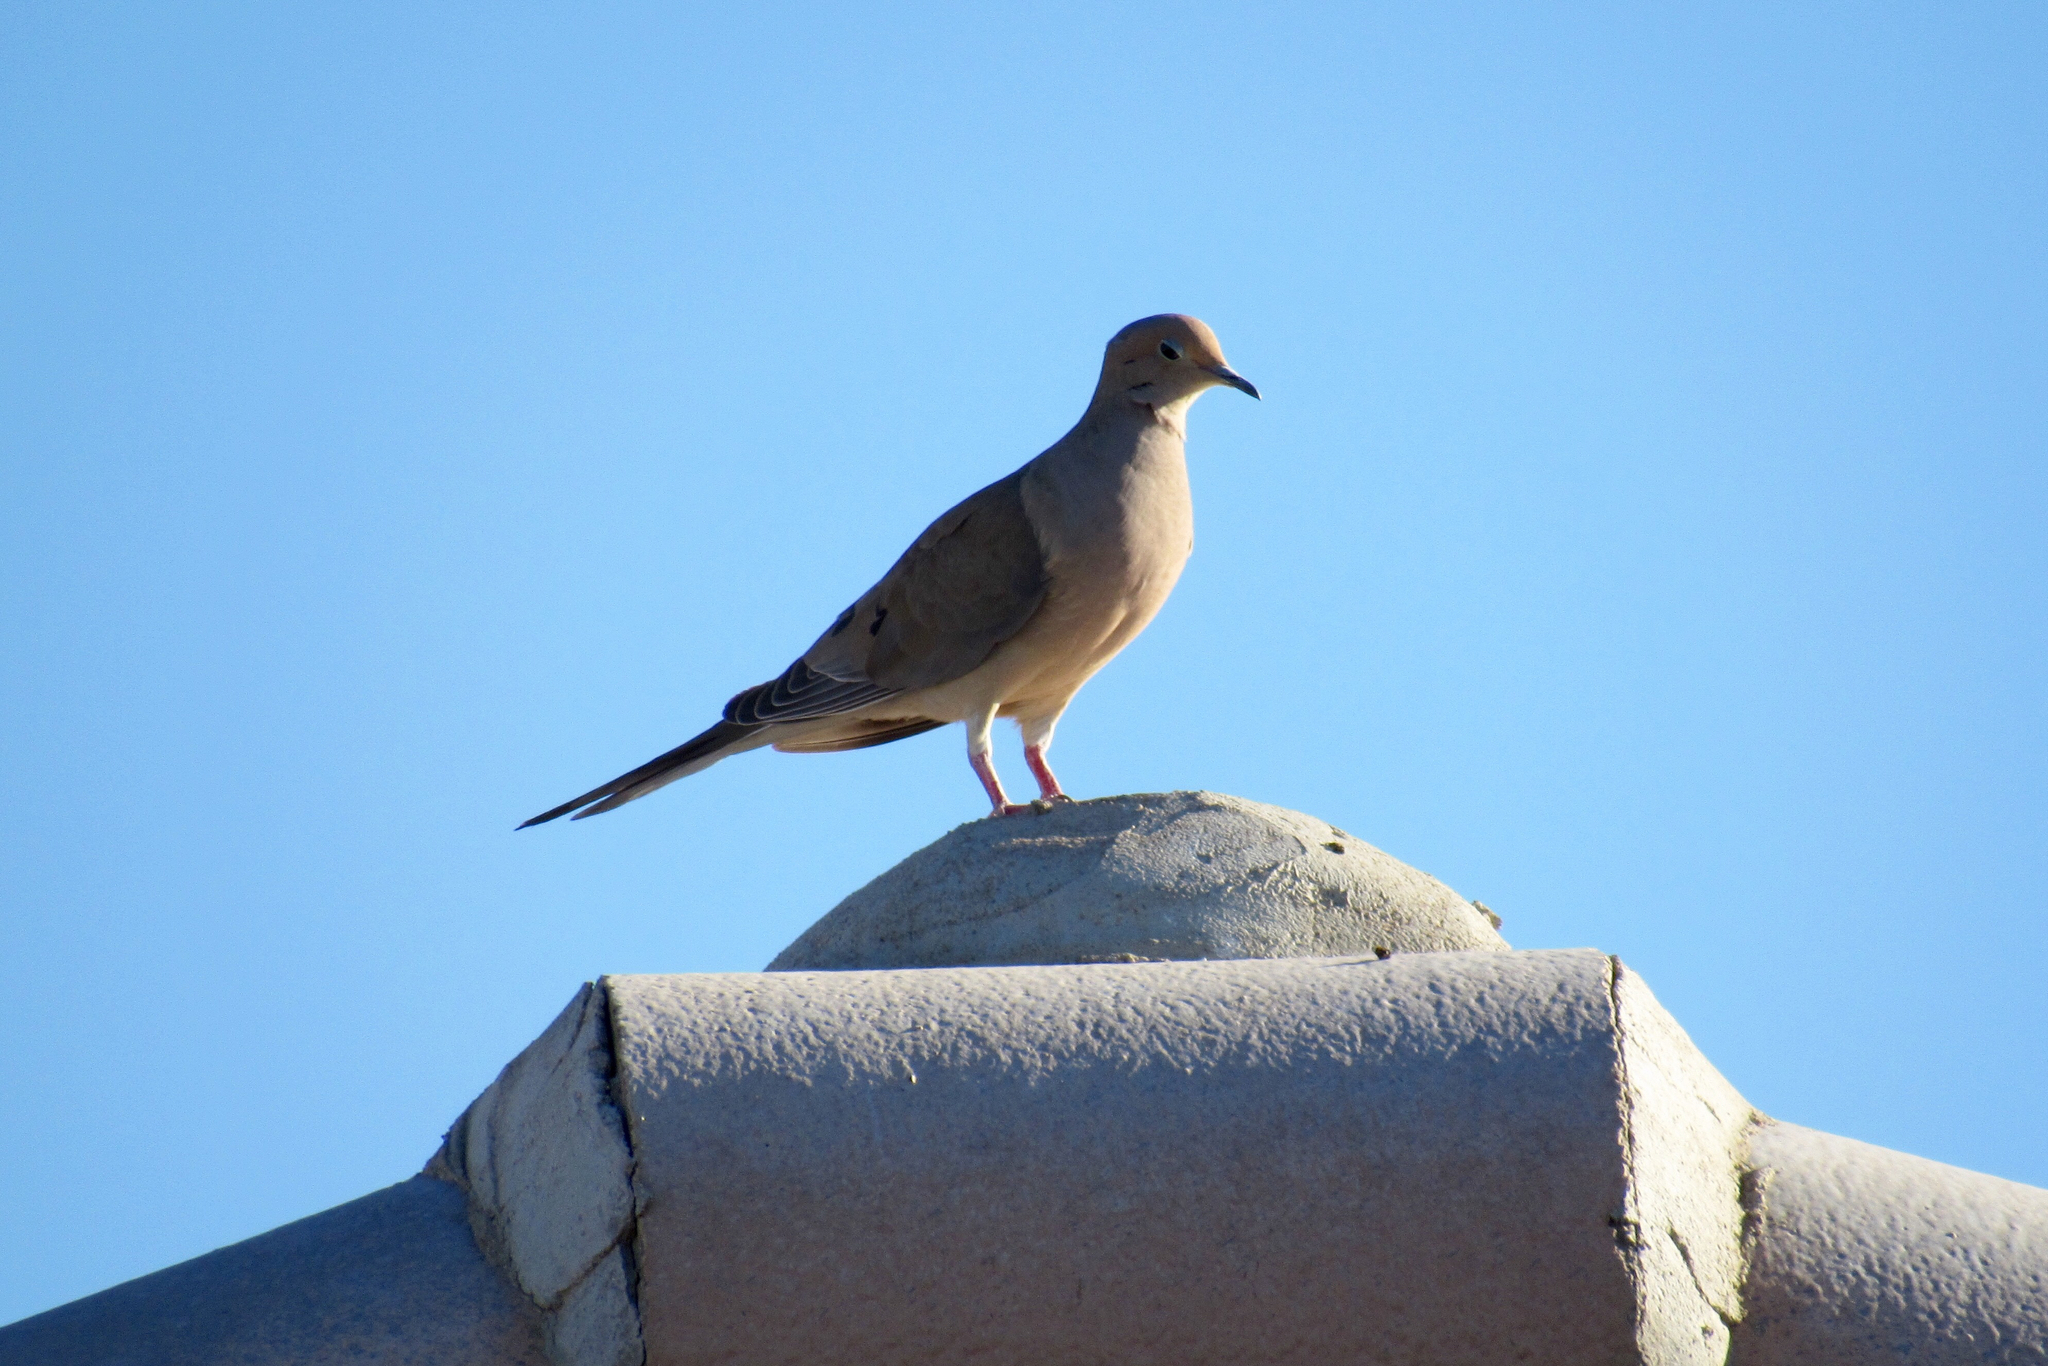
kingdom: Animalia
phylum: Chordata
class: Aves
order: Columbiformes
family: Columbidae
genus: Zenaida
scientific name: Zenaida macroura
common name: Mourning dove
